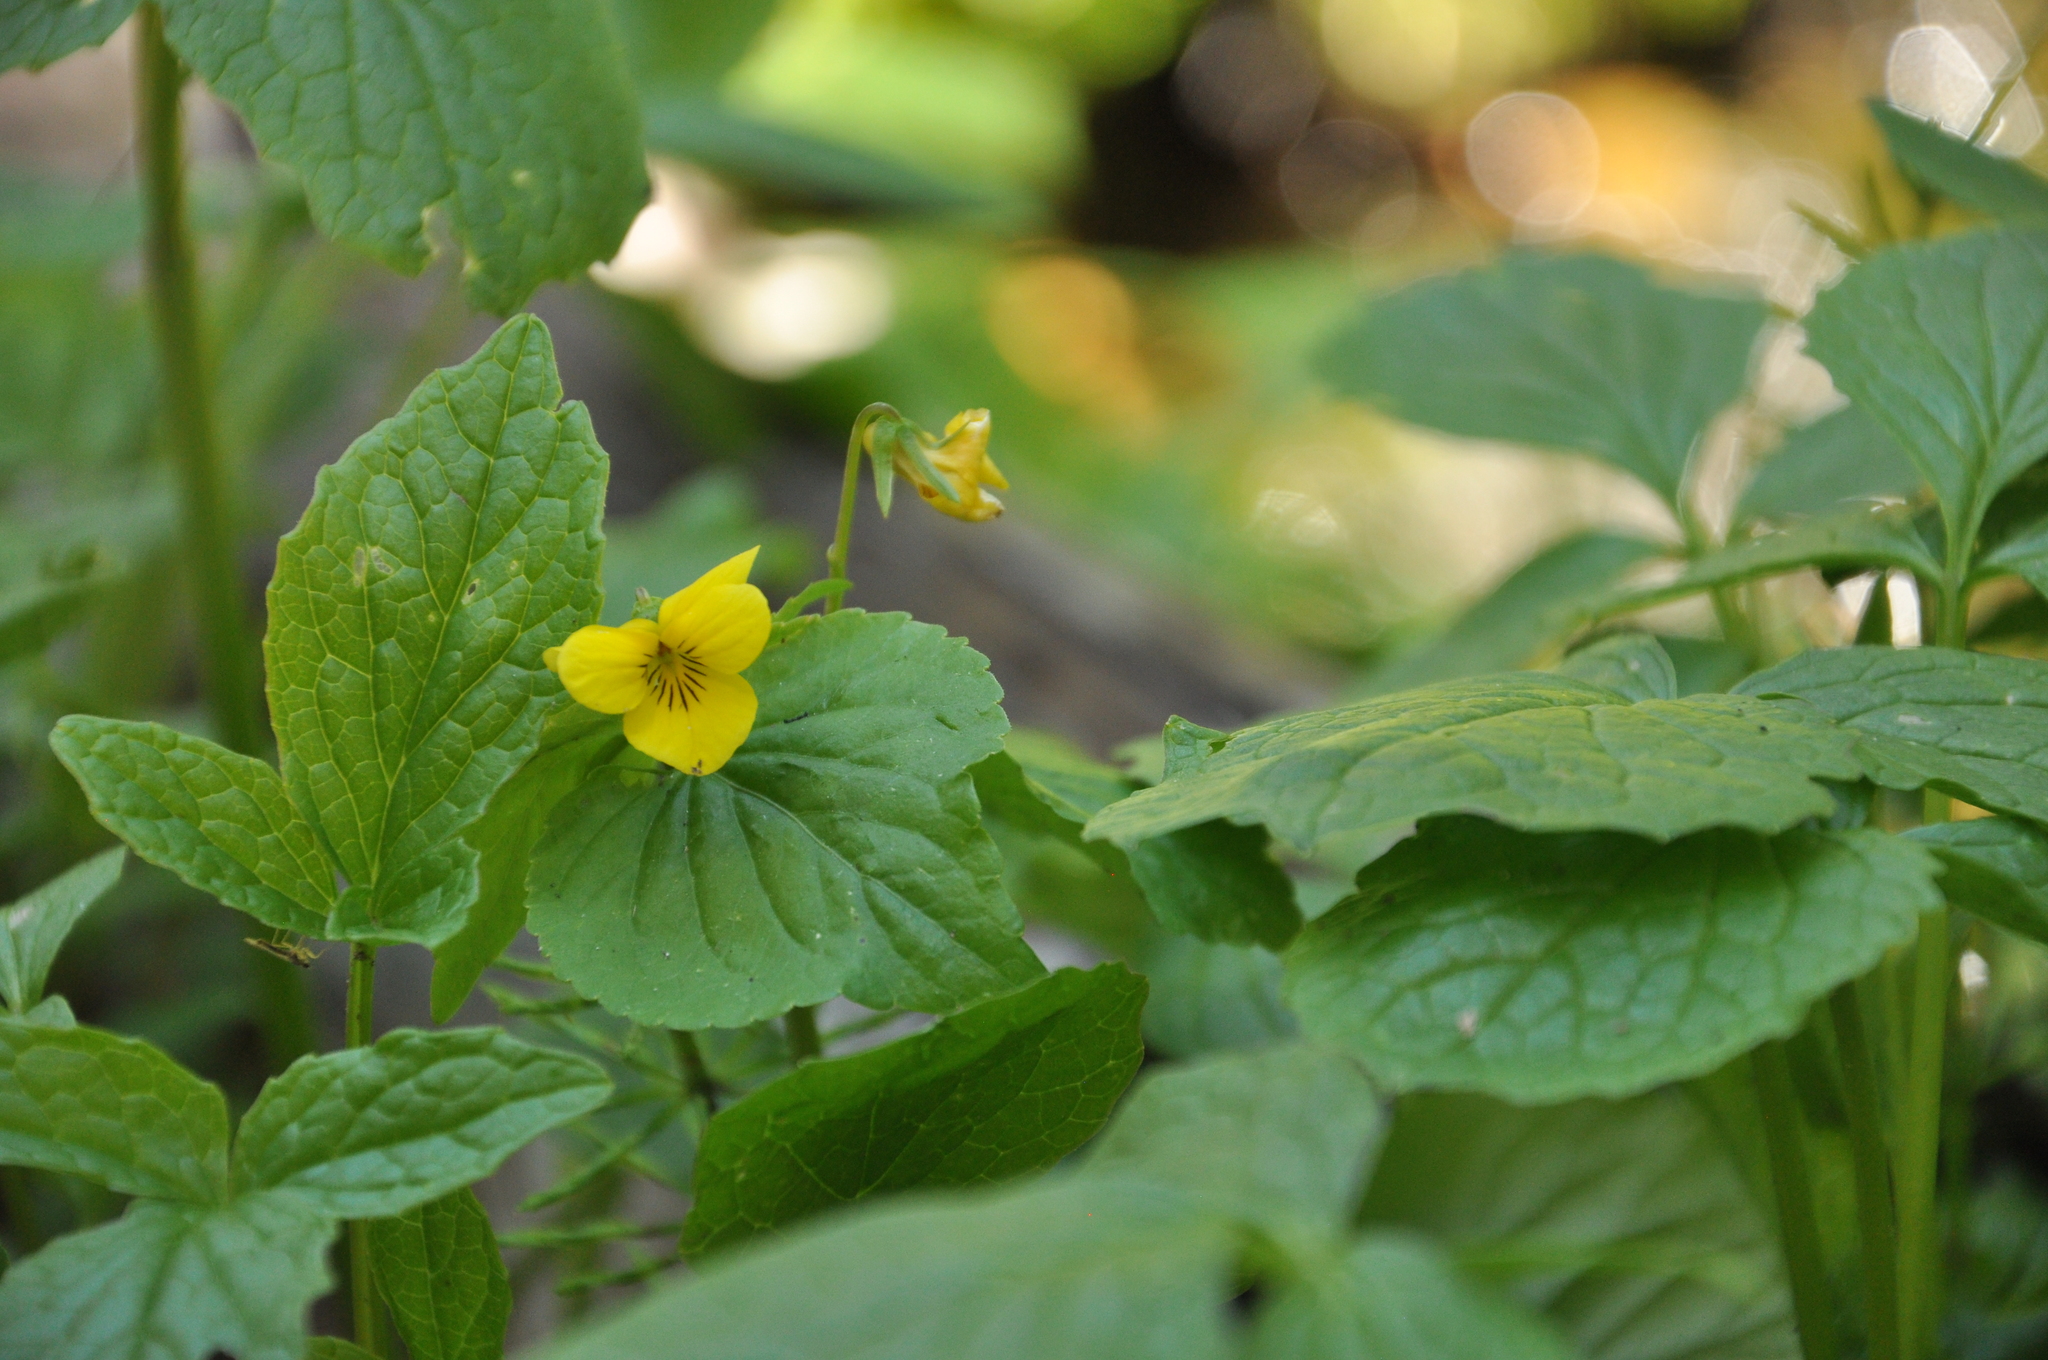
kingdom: Plantae
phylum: Tracheophyta
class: Magnoliopsida
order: Malpighiales
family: Violaceae
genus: Viola
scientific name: Viola glabella
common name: Stream violet
